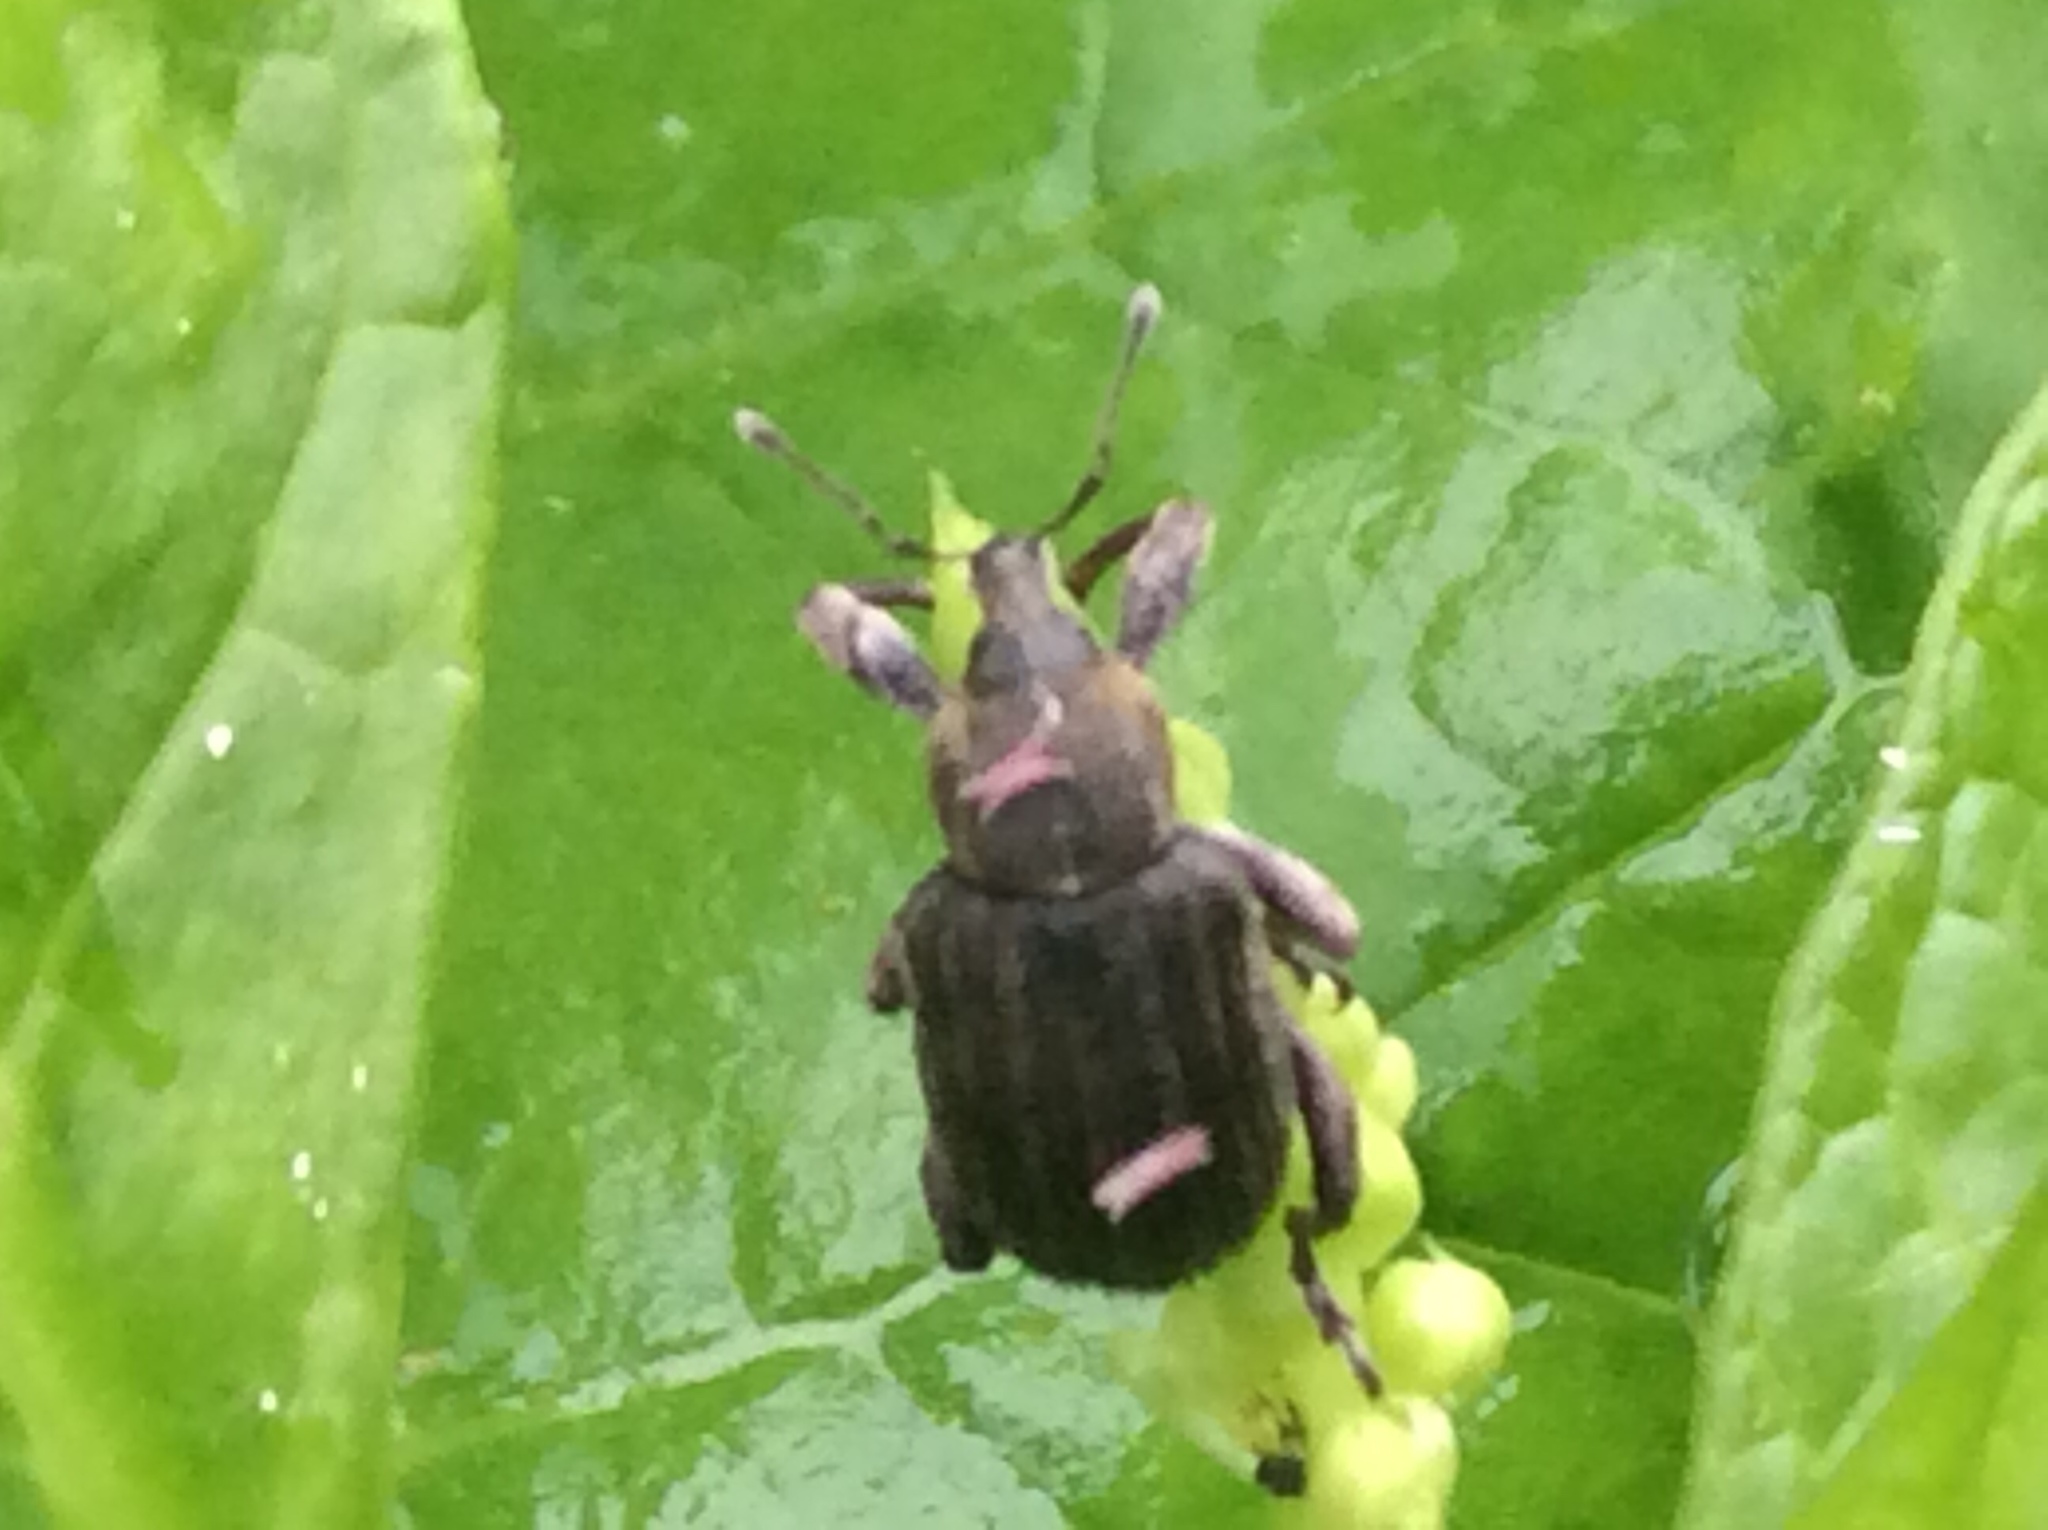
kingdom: Animalia
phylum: Arthropoda
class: Insecta
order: Coleoptera
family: Curculionidae
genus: Brachypera
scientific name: Brachypera zoilus
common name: Clover leaf weevil
